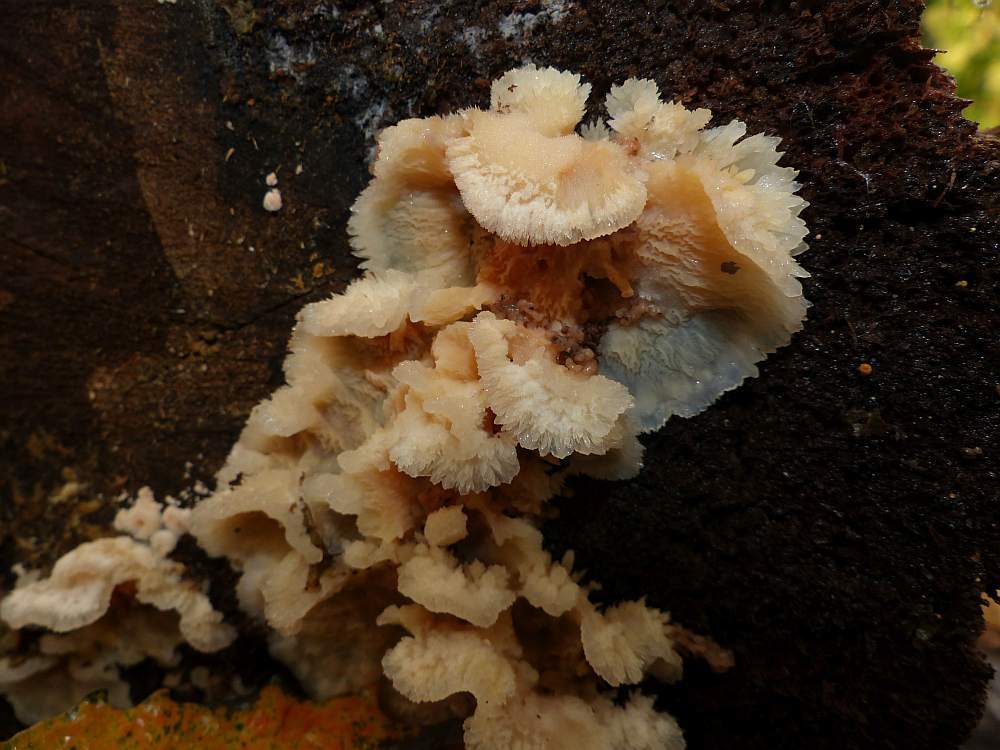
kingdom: Fungi
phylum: Basidiomycota
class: Agaricomycetes
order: Polyporales
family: Meruliaceae
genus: Phlebia
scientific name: Phlebia tremellosa
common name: Jelly rot
